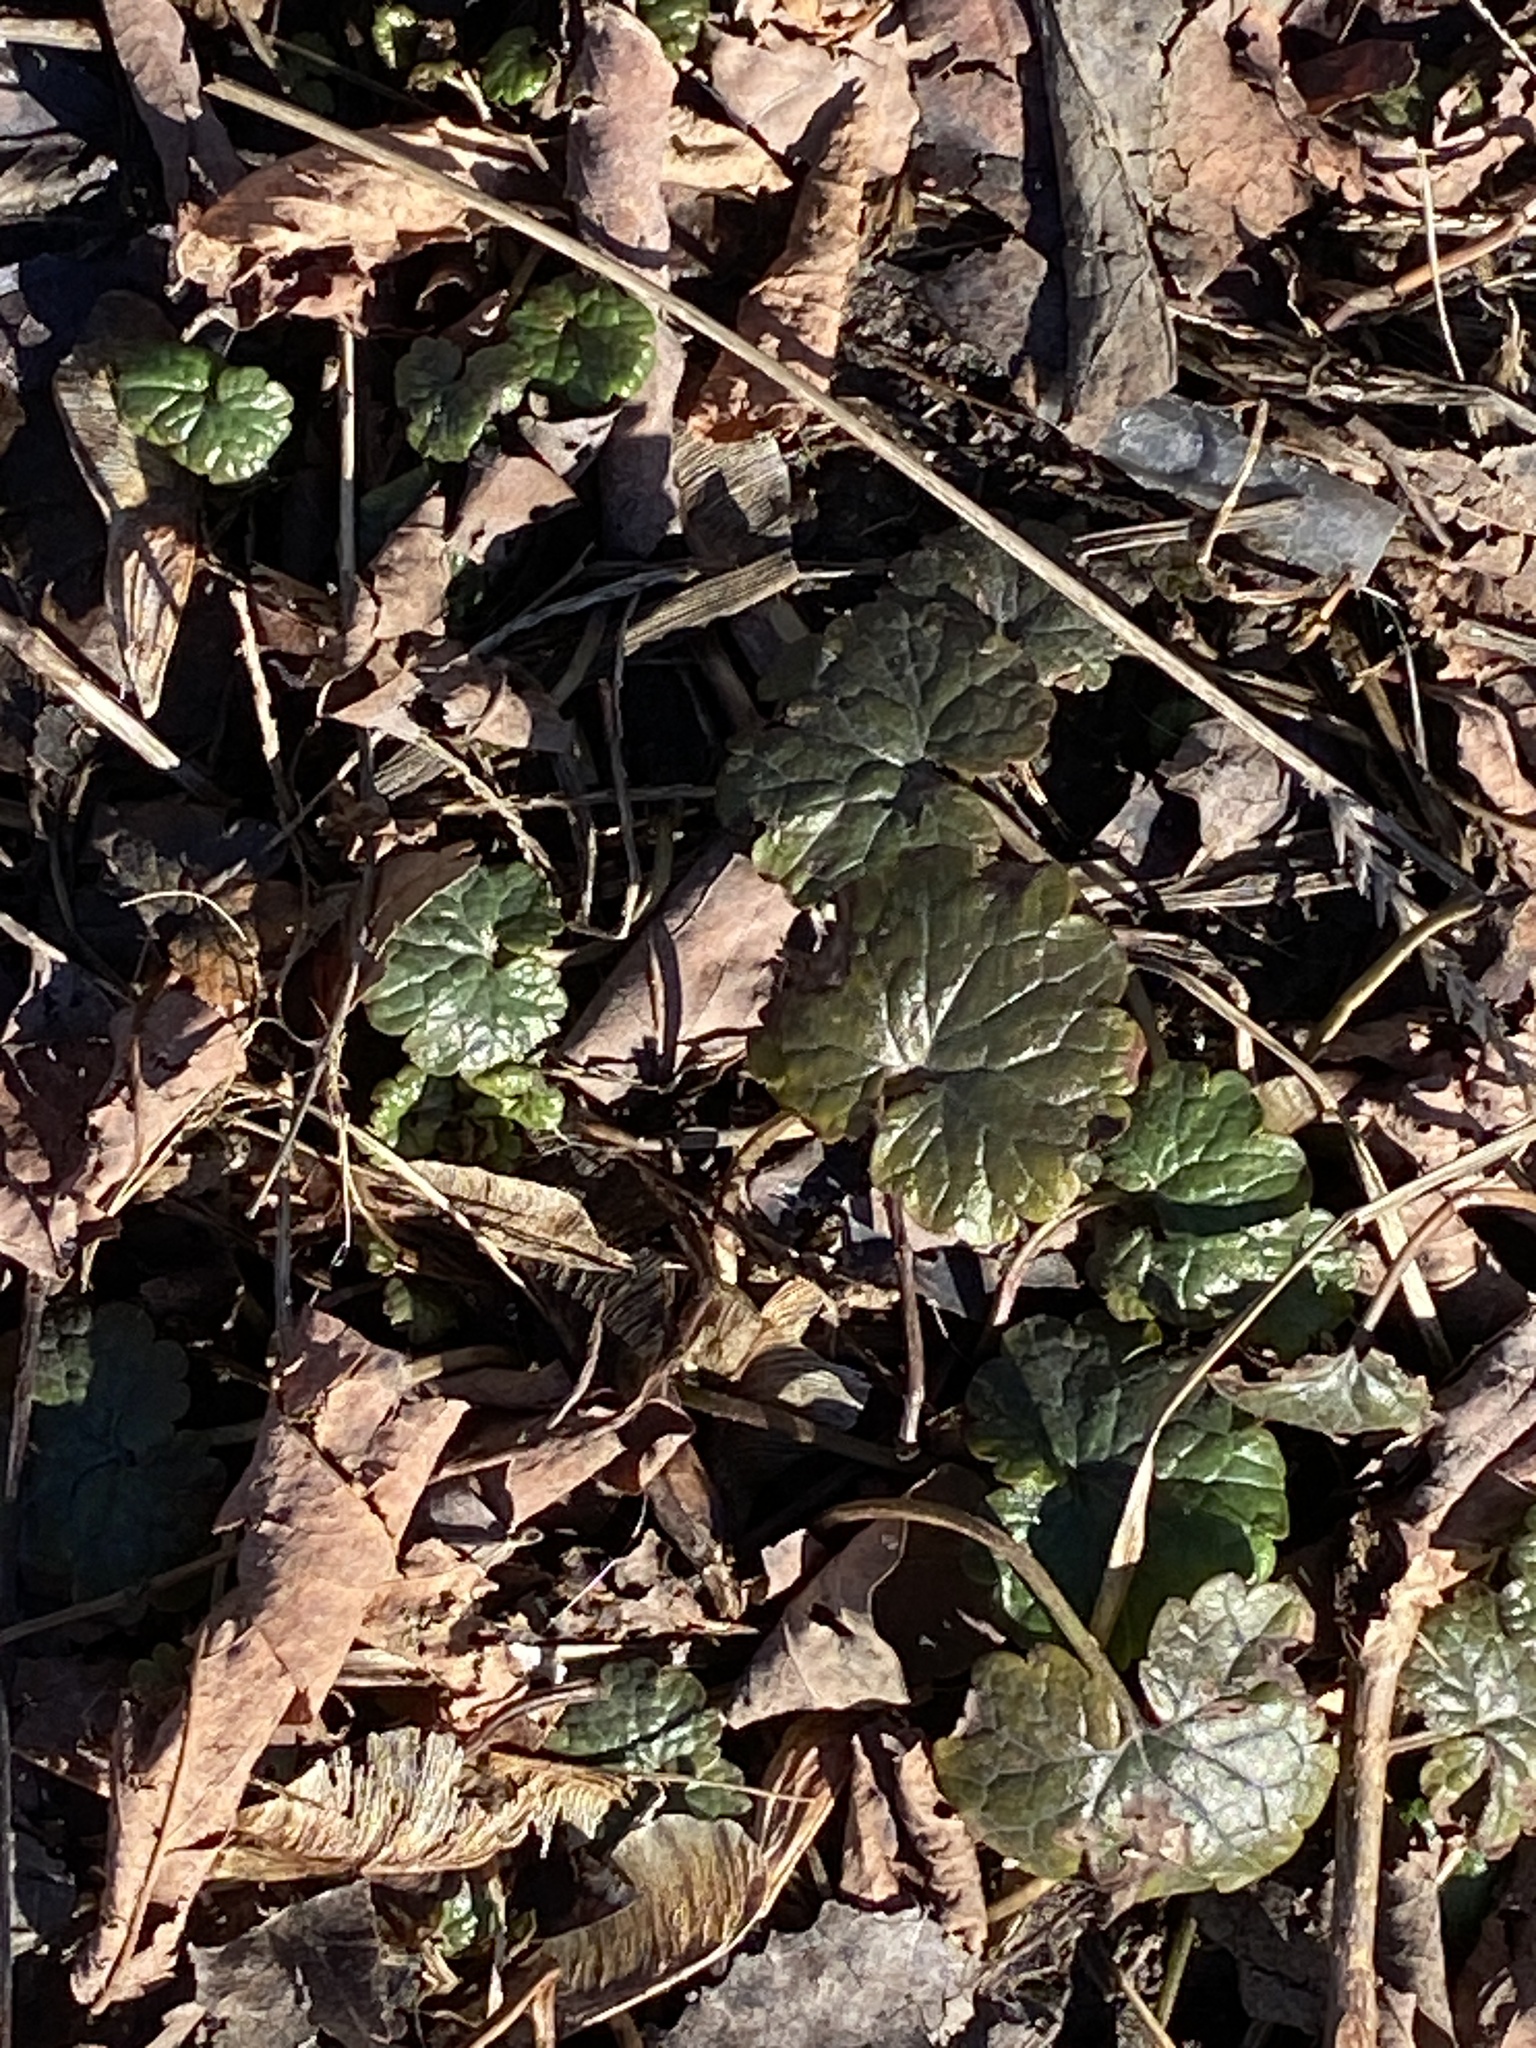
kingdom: Plantae
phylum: Tracheophyta
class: Magnoliopsida
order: Lamiales
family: Lamiaceae
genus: Glechoma
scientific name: Glechoma hederacea
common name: Ground ivy
